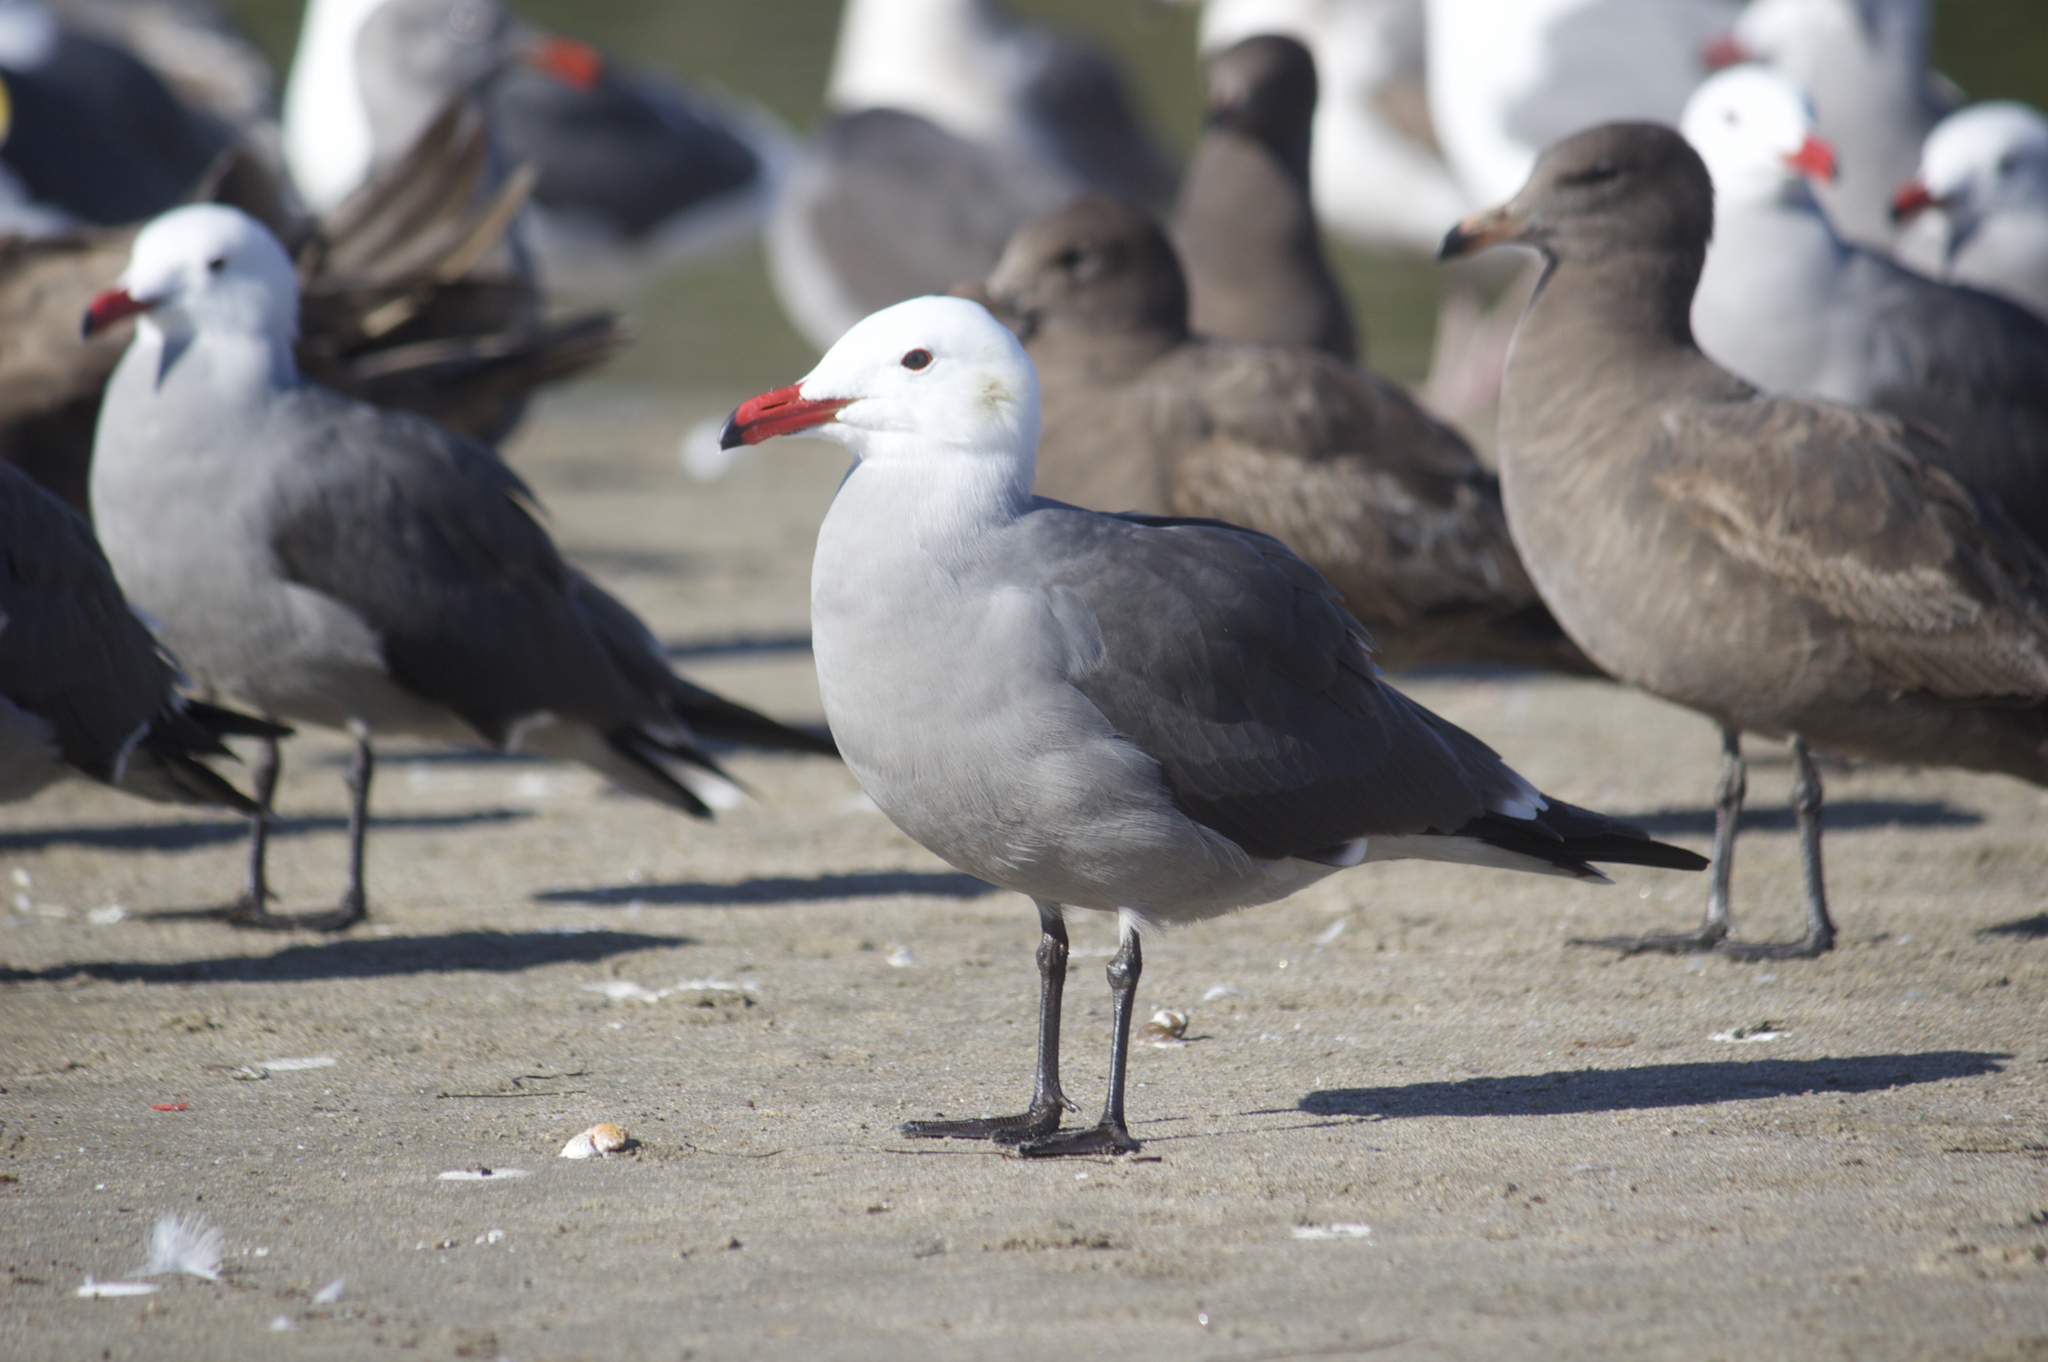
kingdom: Animalia
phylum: Chordata
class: Aves
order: Charadriiformes
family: Laridae
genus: Larus
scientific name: Larus heermanni
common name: Heermann's gull
